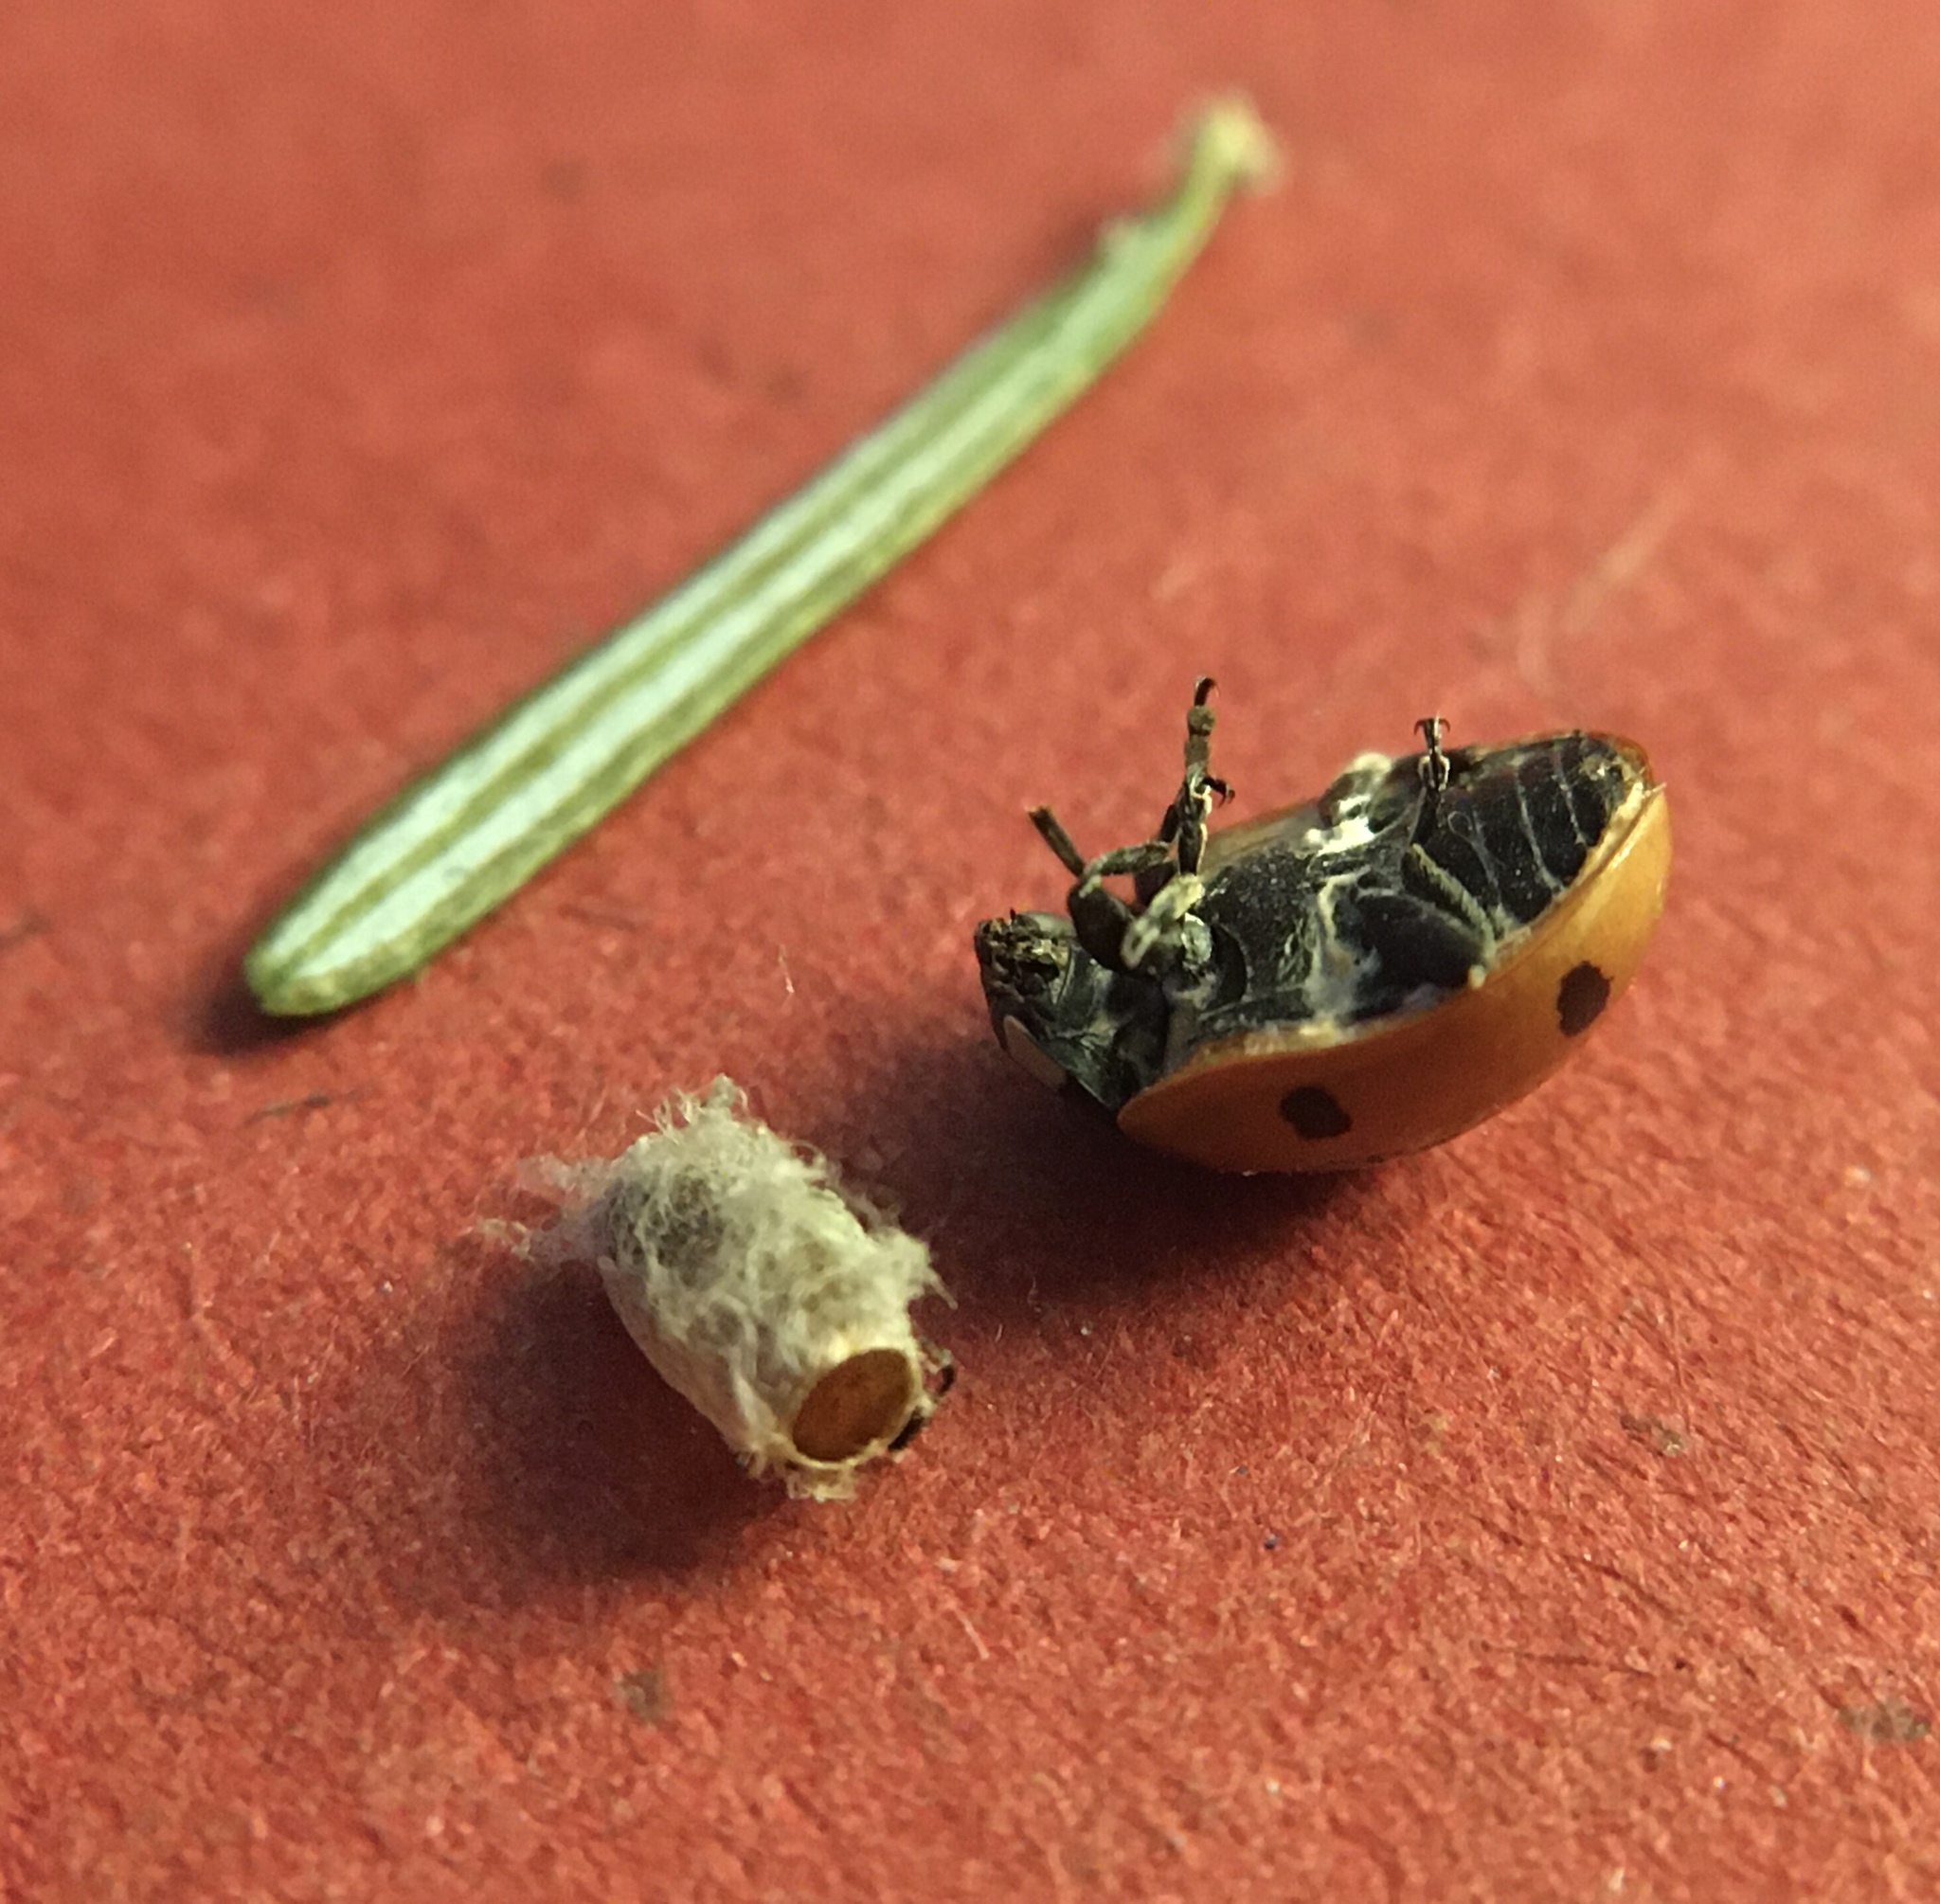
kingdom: Animalia
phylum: Arthropoda
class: Insecta
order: Hymenoptera
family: Braconidae
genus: Dinocampus
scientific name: Dinocampus coccinellae
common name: Braconid wasp
